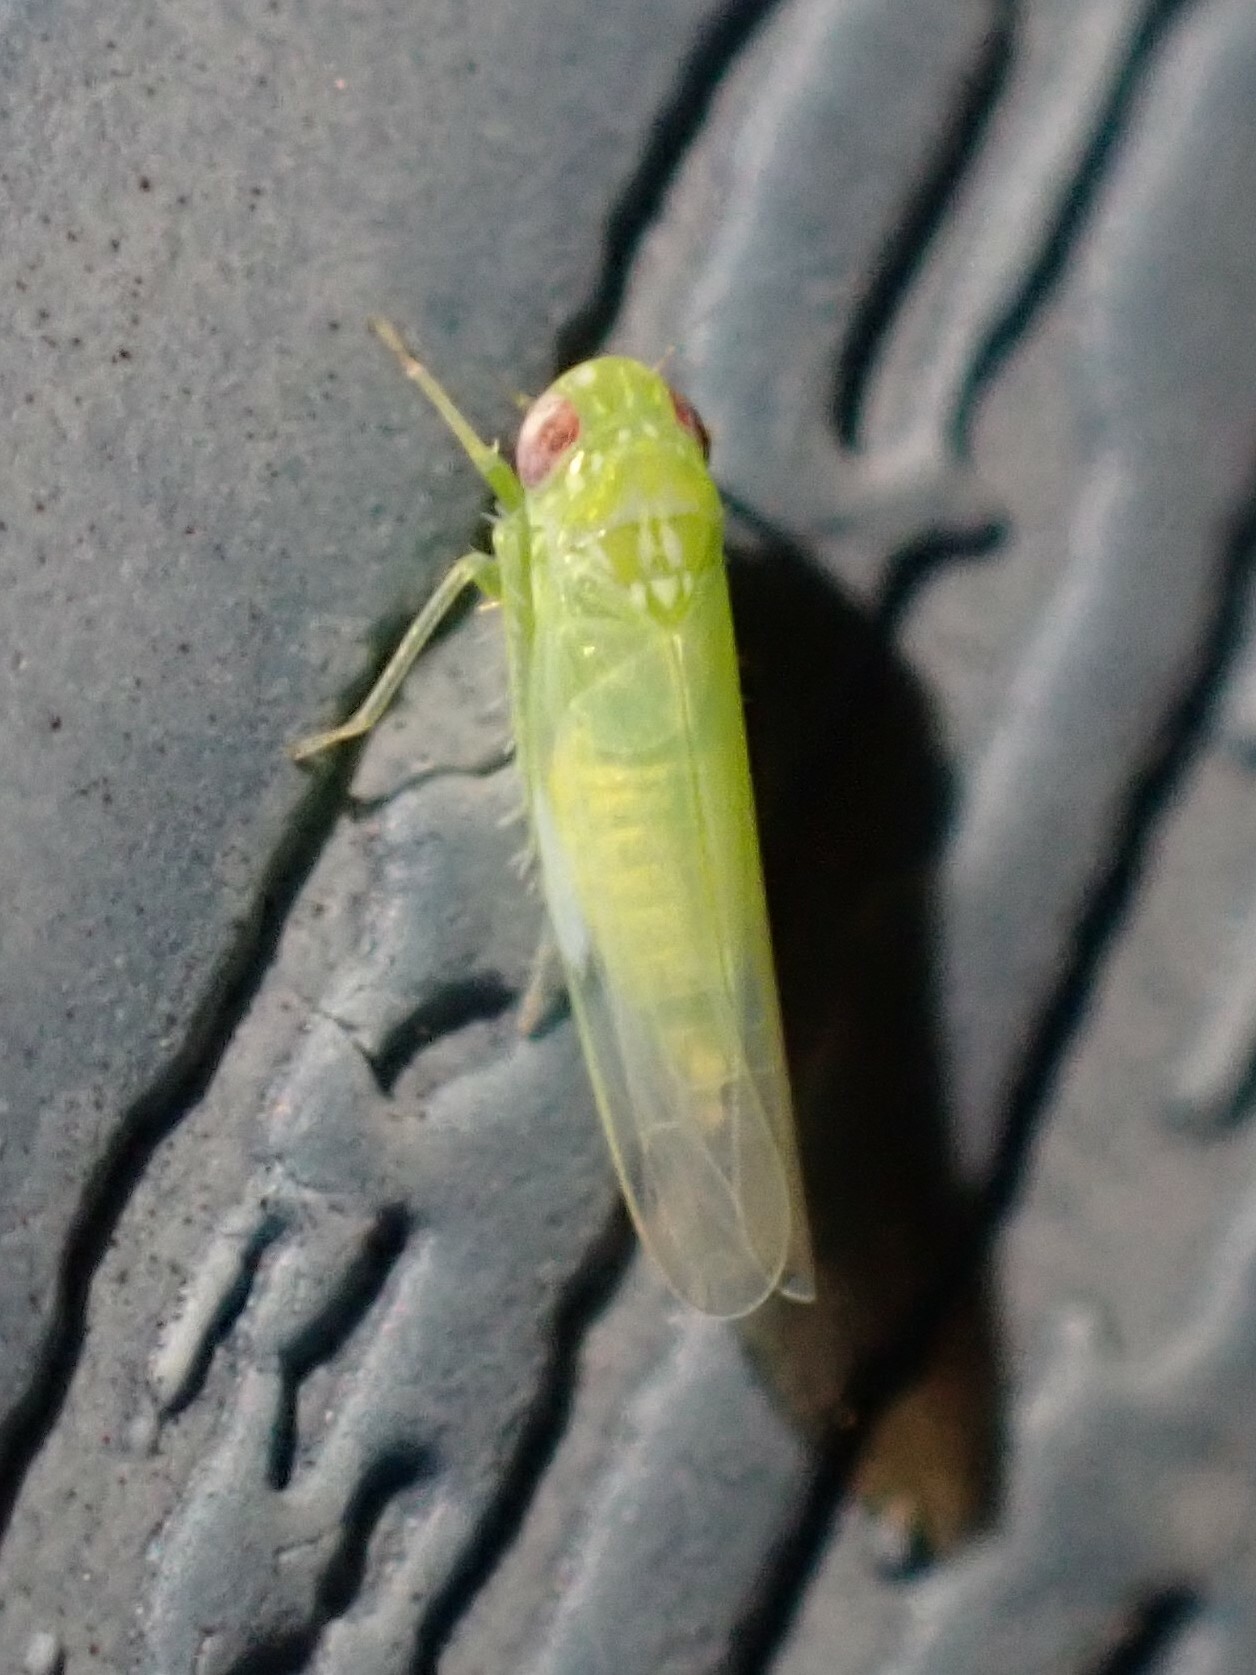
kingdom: Animalia
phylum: Arthropoda
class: Insecta
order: Hemiptera
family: Cicadellidae
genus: Empoasca
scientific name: Empoasca fabae
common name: Potato leafhopper
